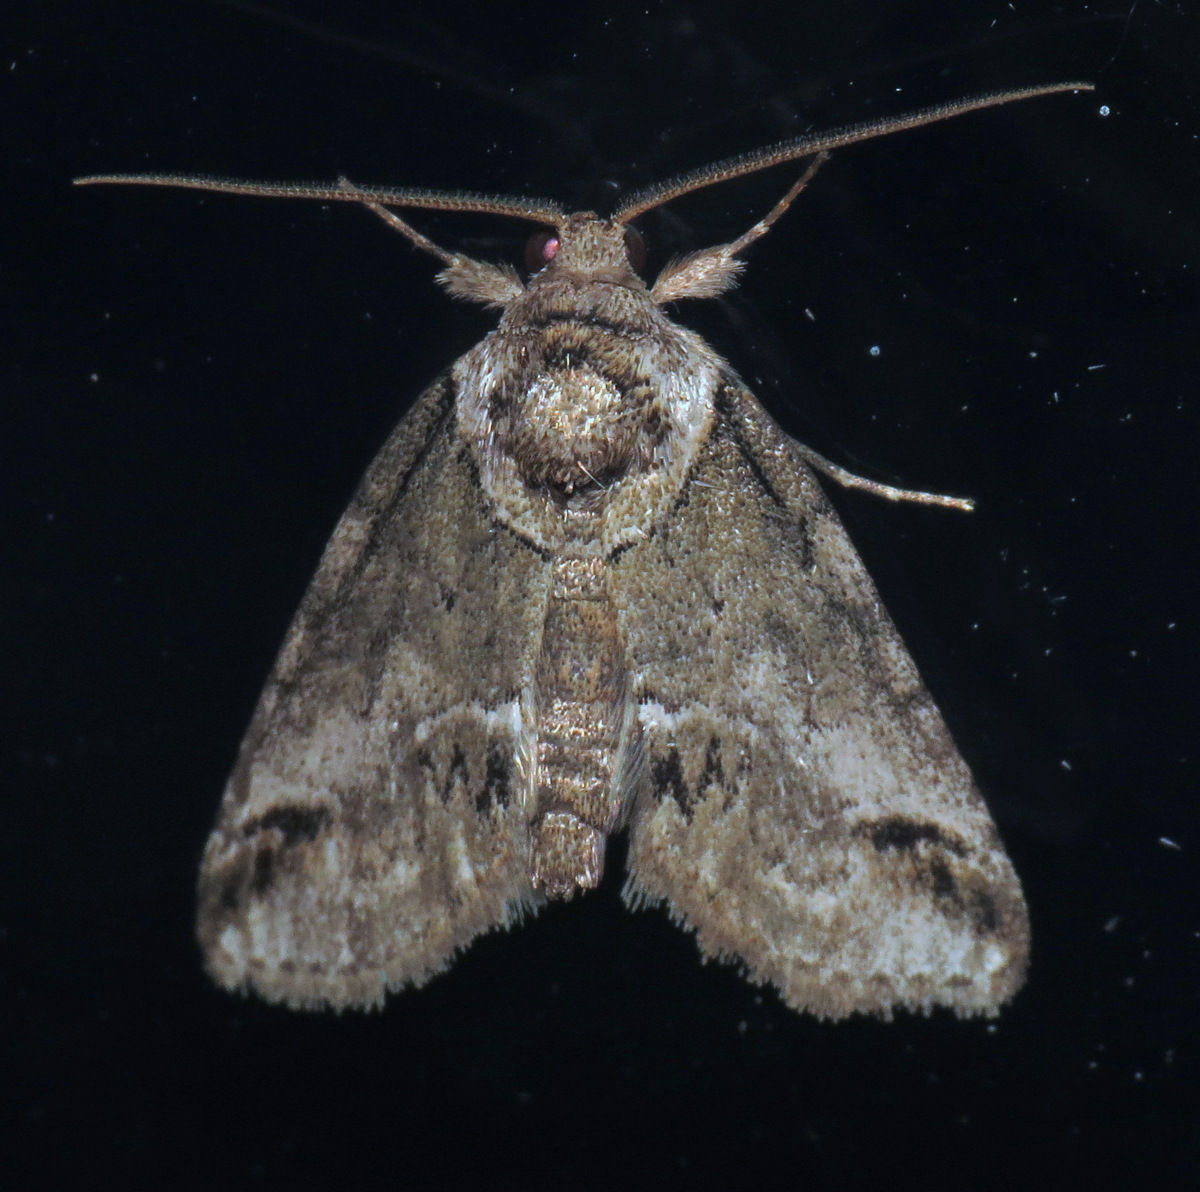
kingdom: Animalia
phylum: Arthropoda
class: Insecta
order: Lepidoptera
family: Nolidae
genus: Baileya
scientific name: Baileya australis
